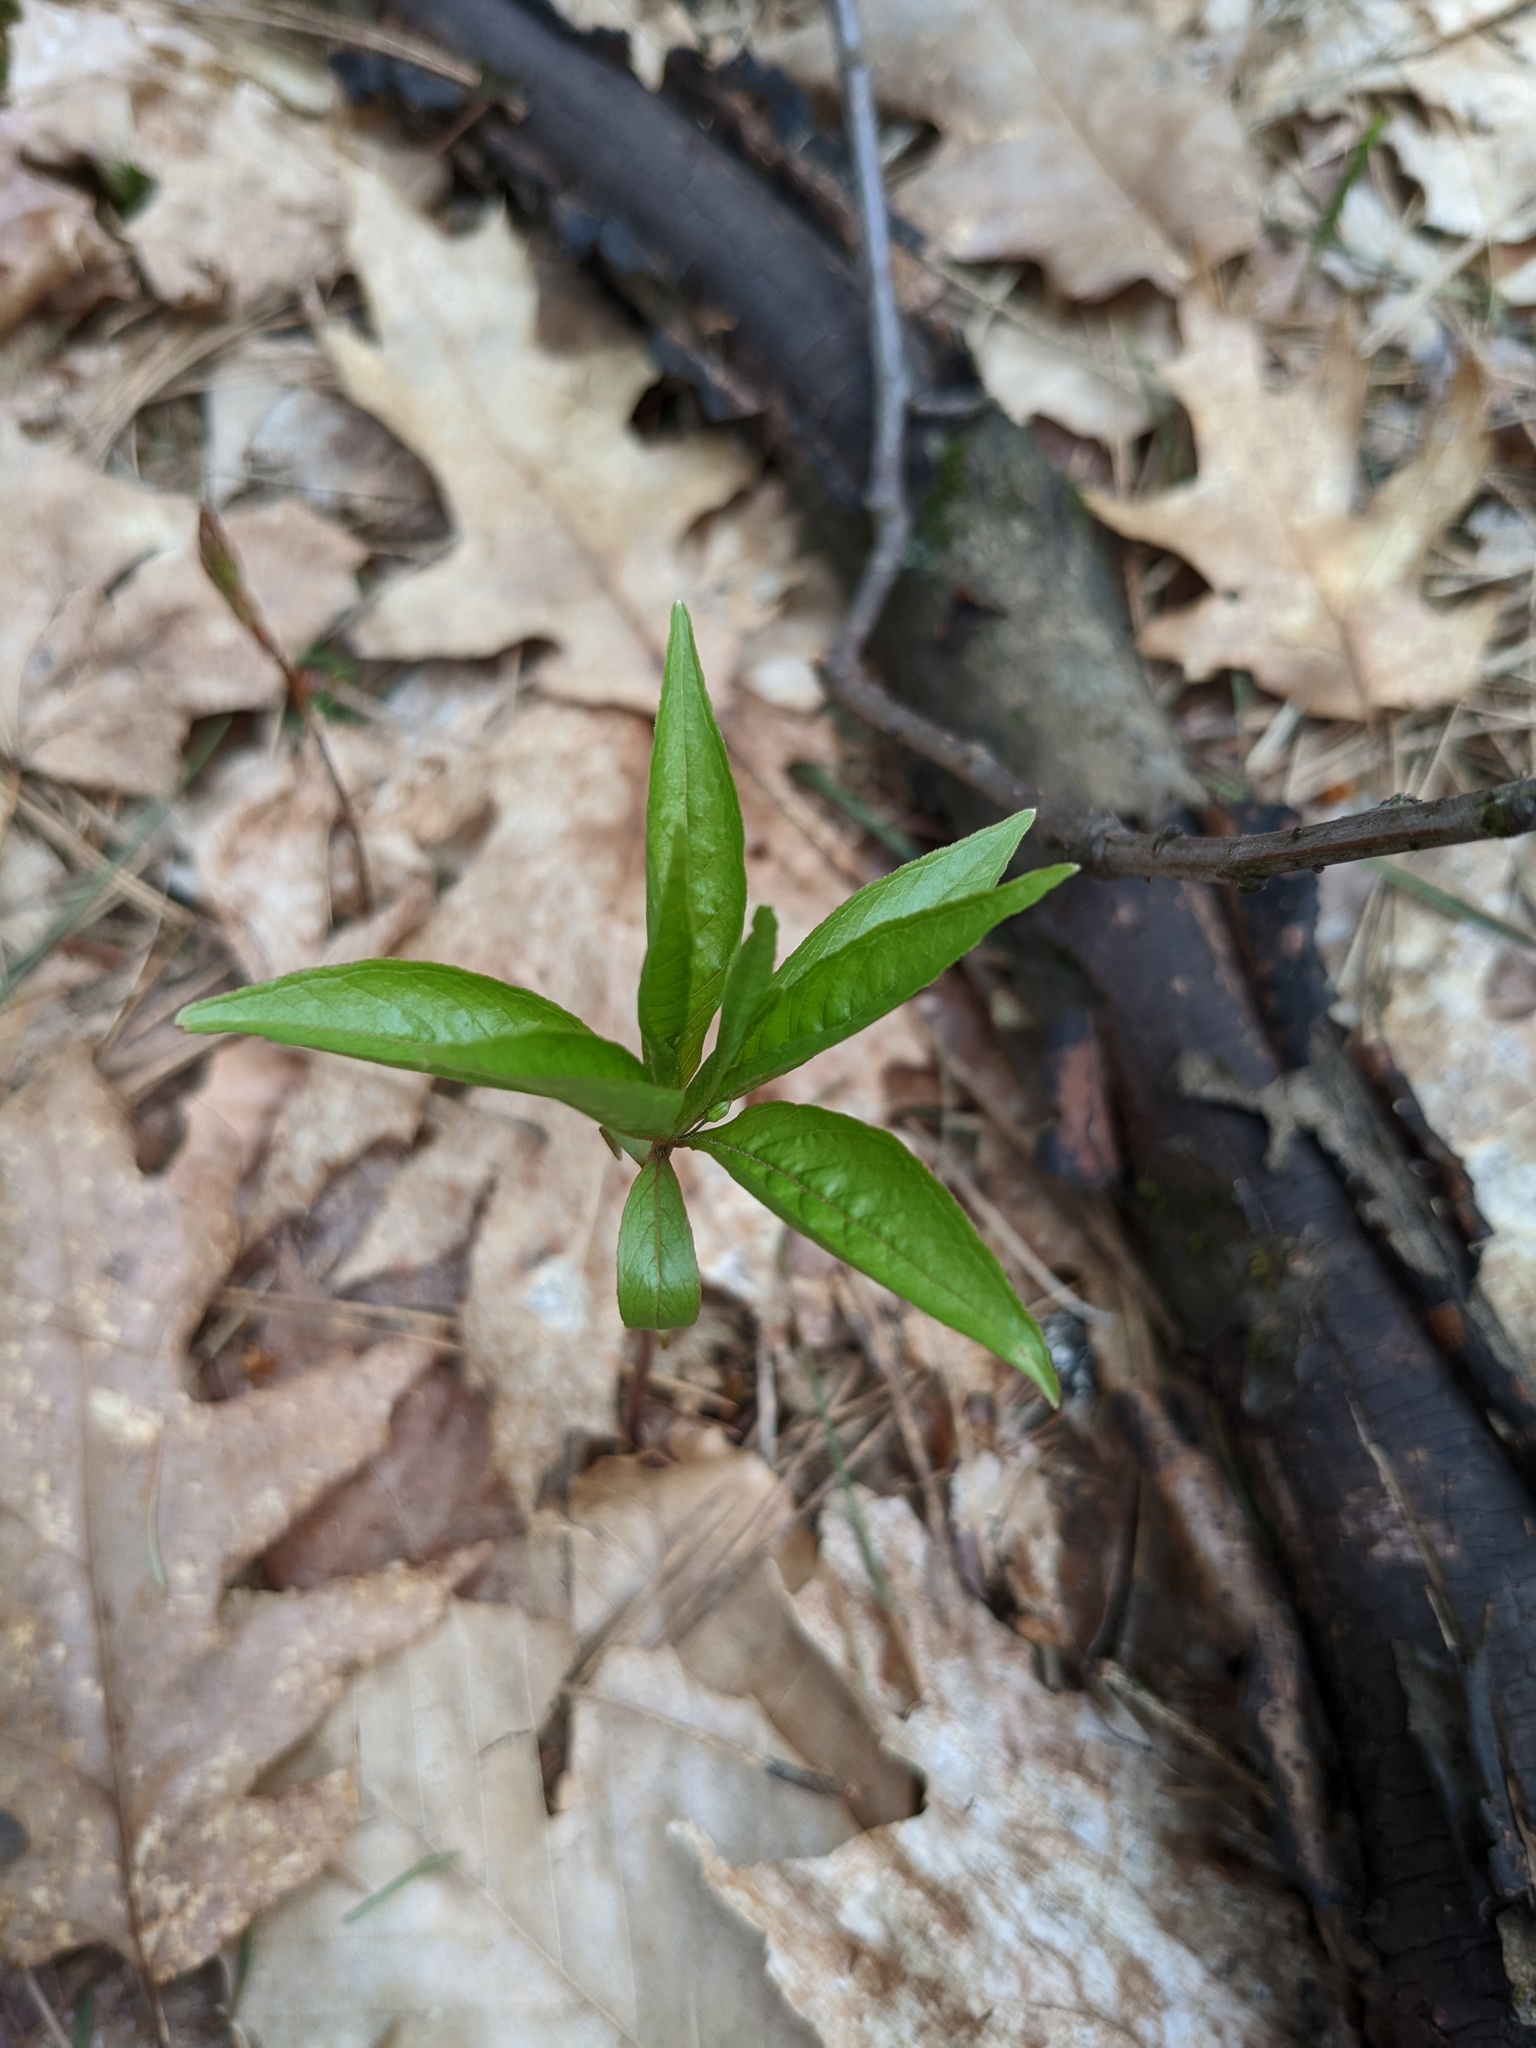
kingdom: Plantae
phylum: Tracheophyta
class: Magnoliopsida
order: Ericales
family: Primulaceae
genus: Lysimachia
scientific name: Lysimachia borealis
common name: American starflower
